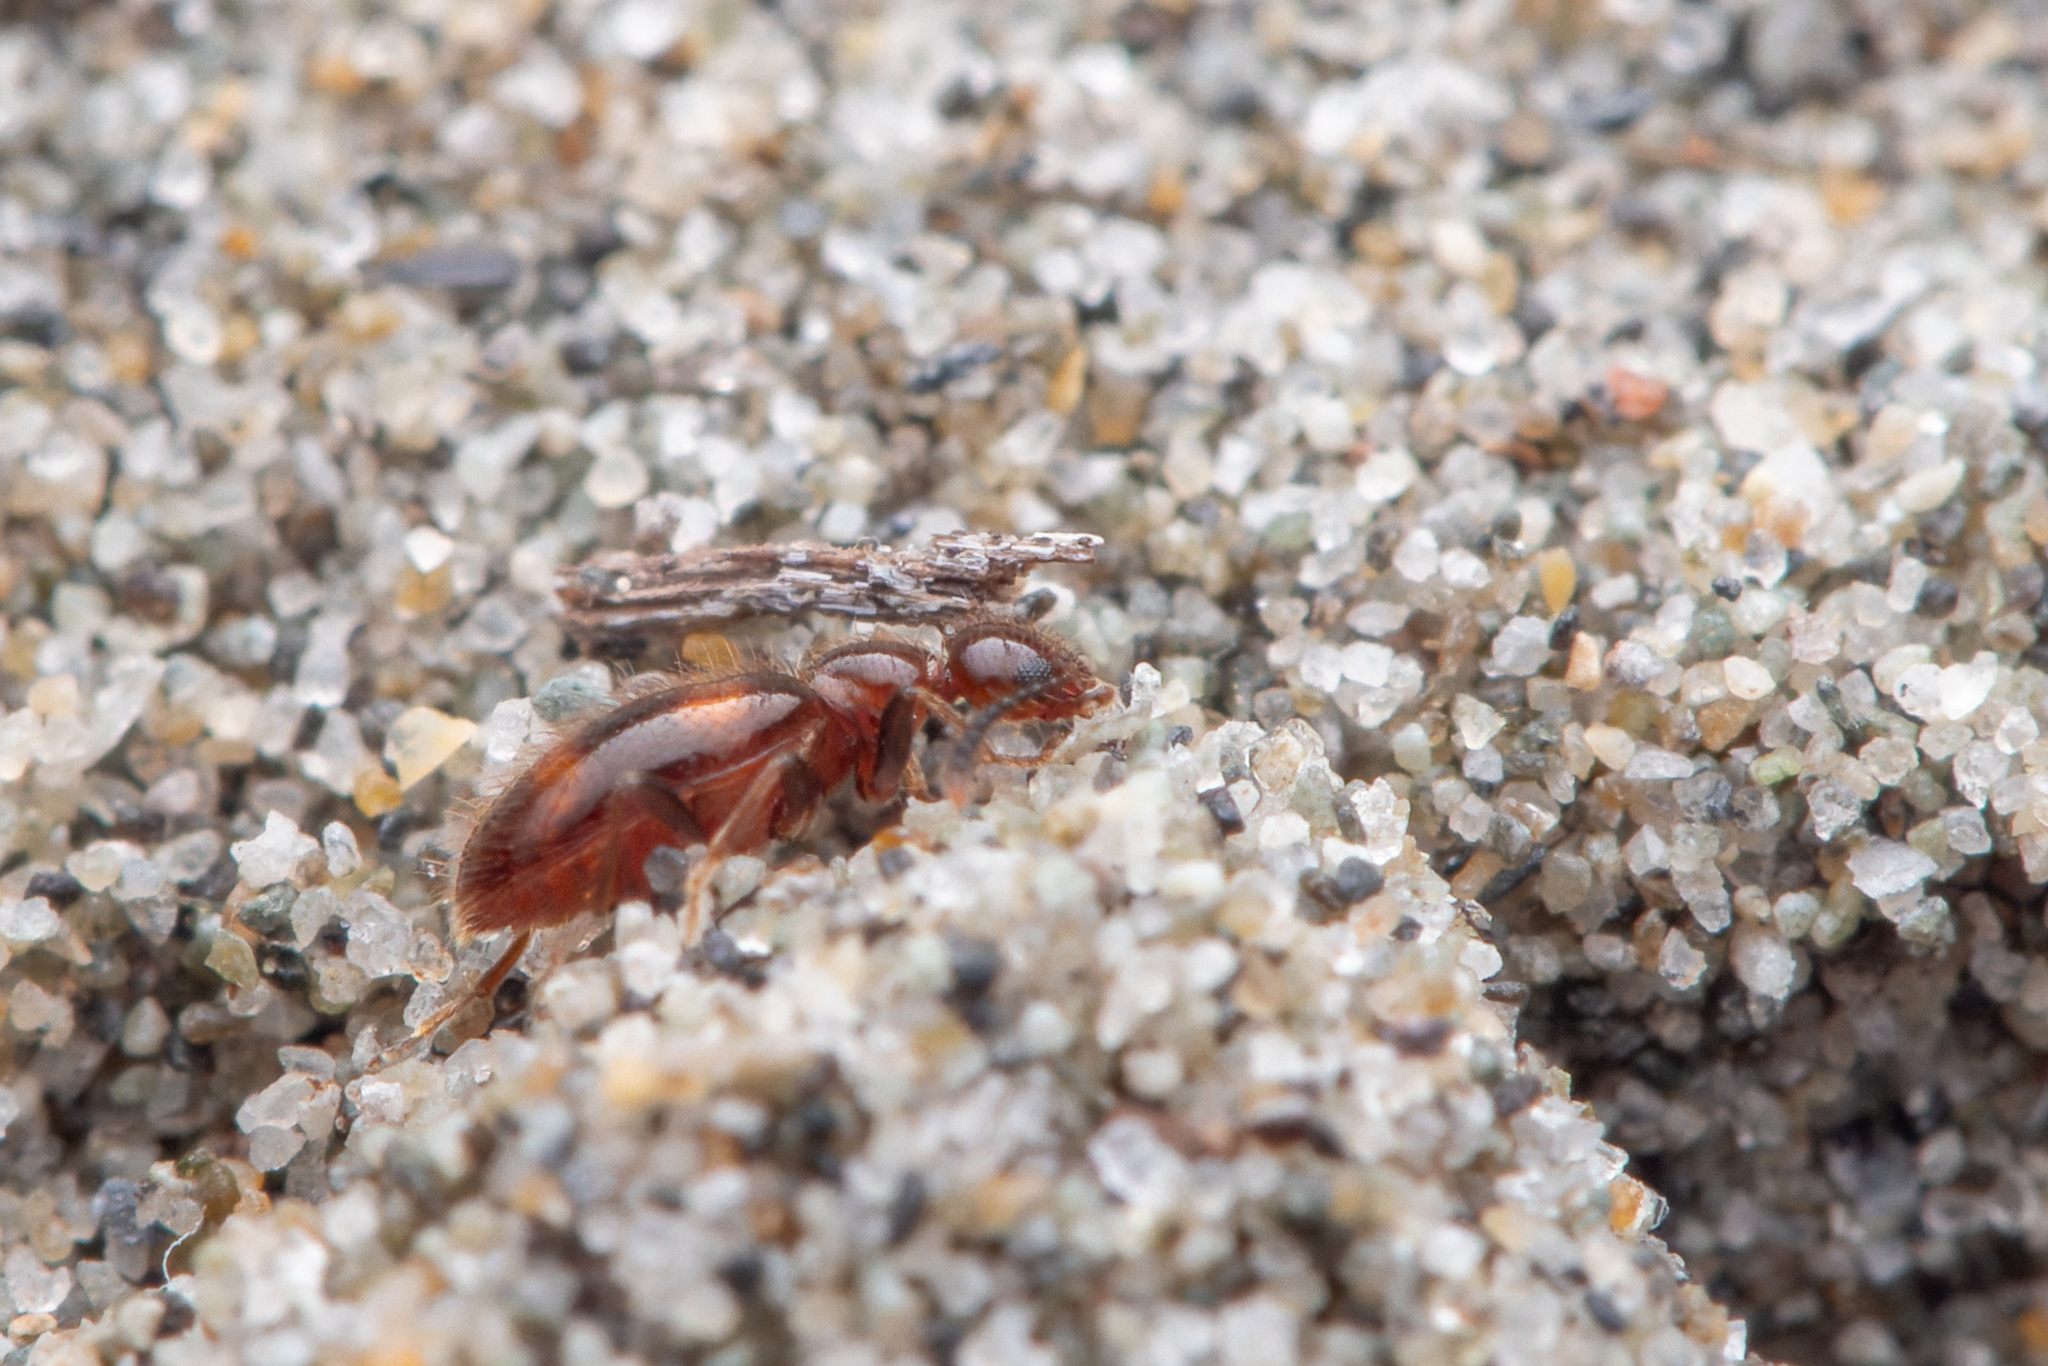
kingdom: Animalia
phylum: Arthropoda
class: Insecta
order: Coleoptera
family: Anthicidae
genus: Sapintus
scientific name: Sapintus aucklandensis
